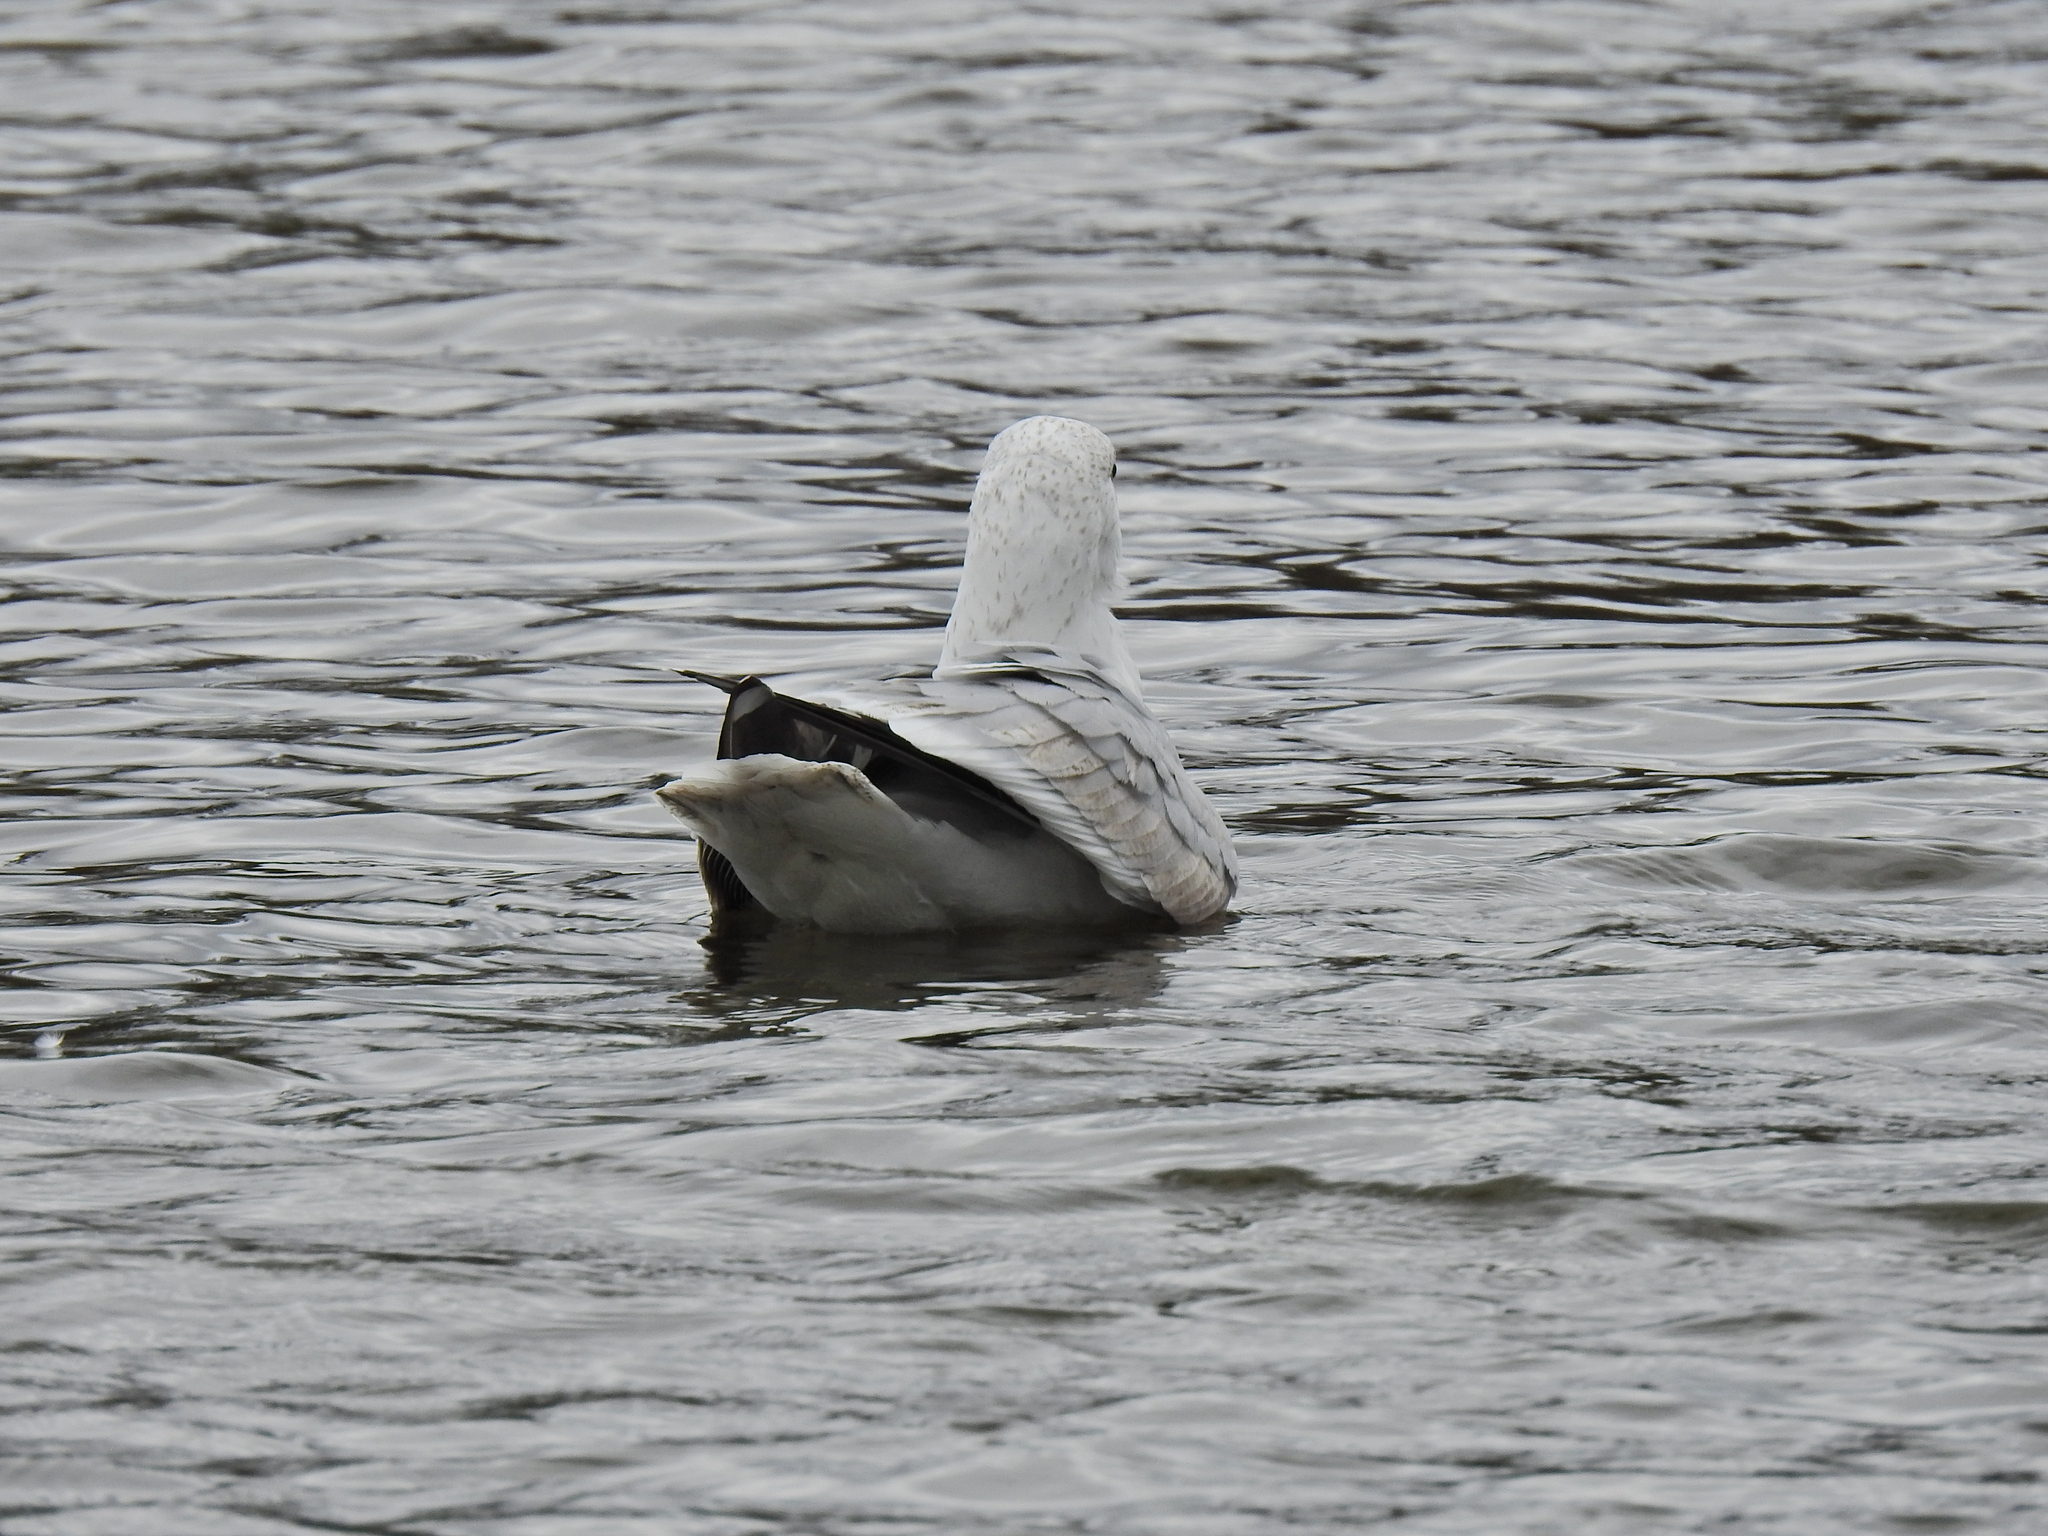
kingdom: Animalia
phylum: Chordata
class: Aves
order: Charadriiformes
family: Laridae
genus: Larus
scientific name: Larus argentatus
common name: Herring gull
